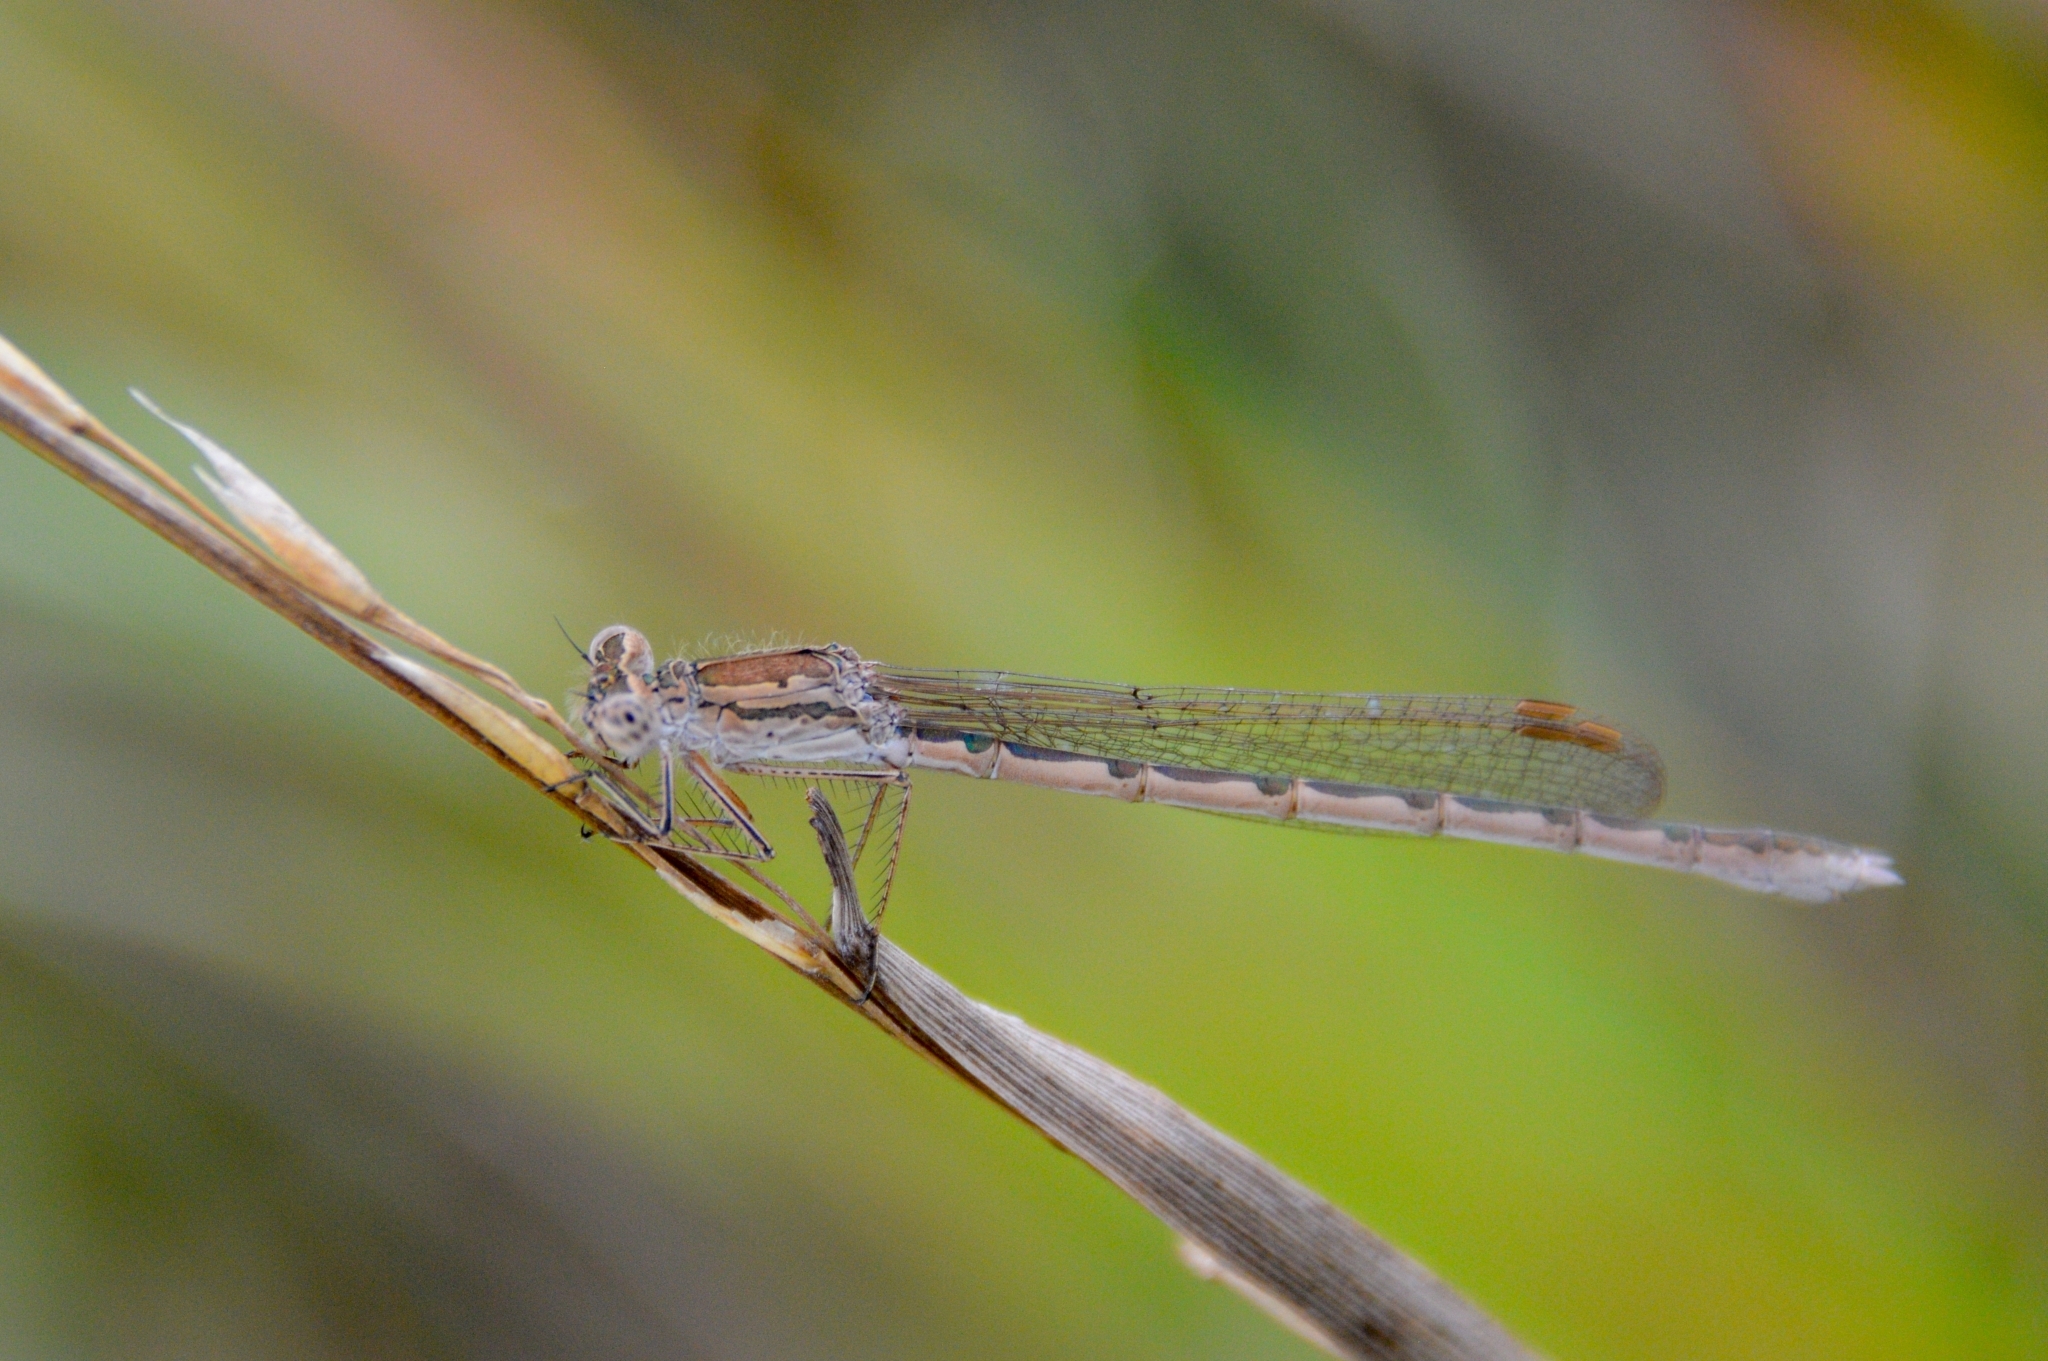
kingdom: Animalia
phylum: Arthropoda
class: Insecta
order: Odonata
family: Lestidae
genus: Sympecma
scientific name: Sympecma paedisca
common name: Siberian winter damsel
